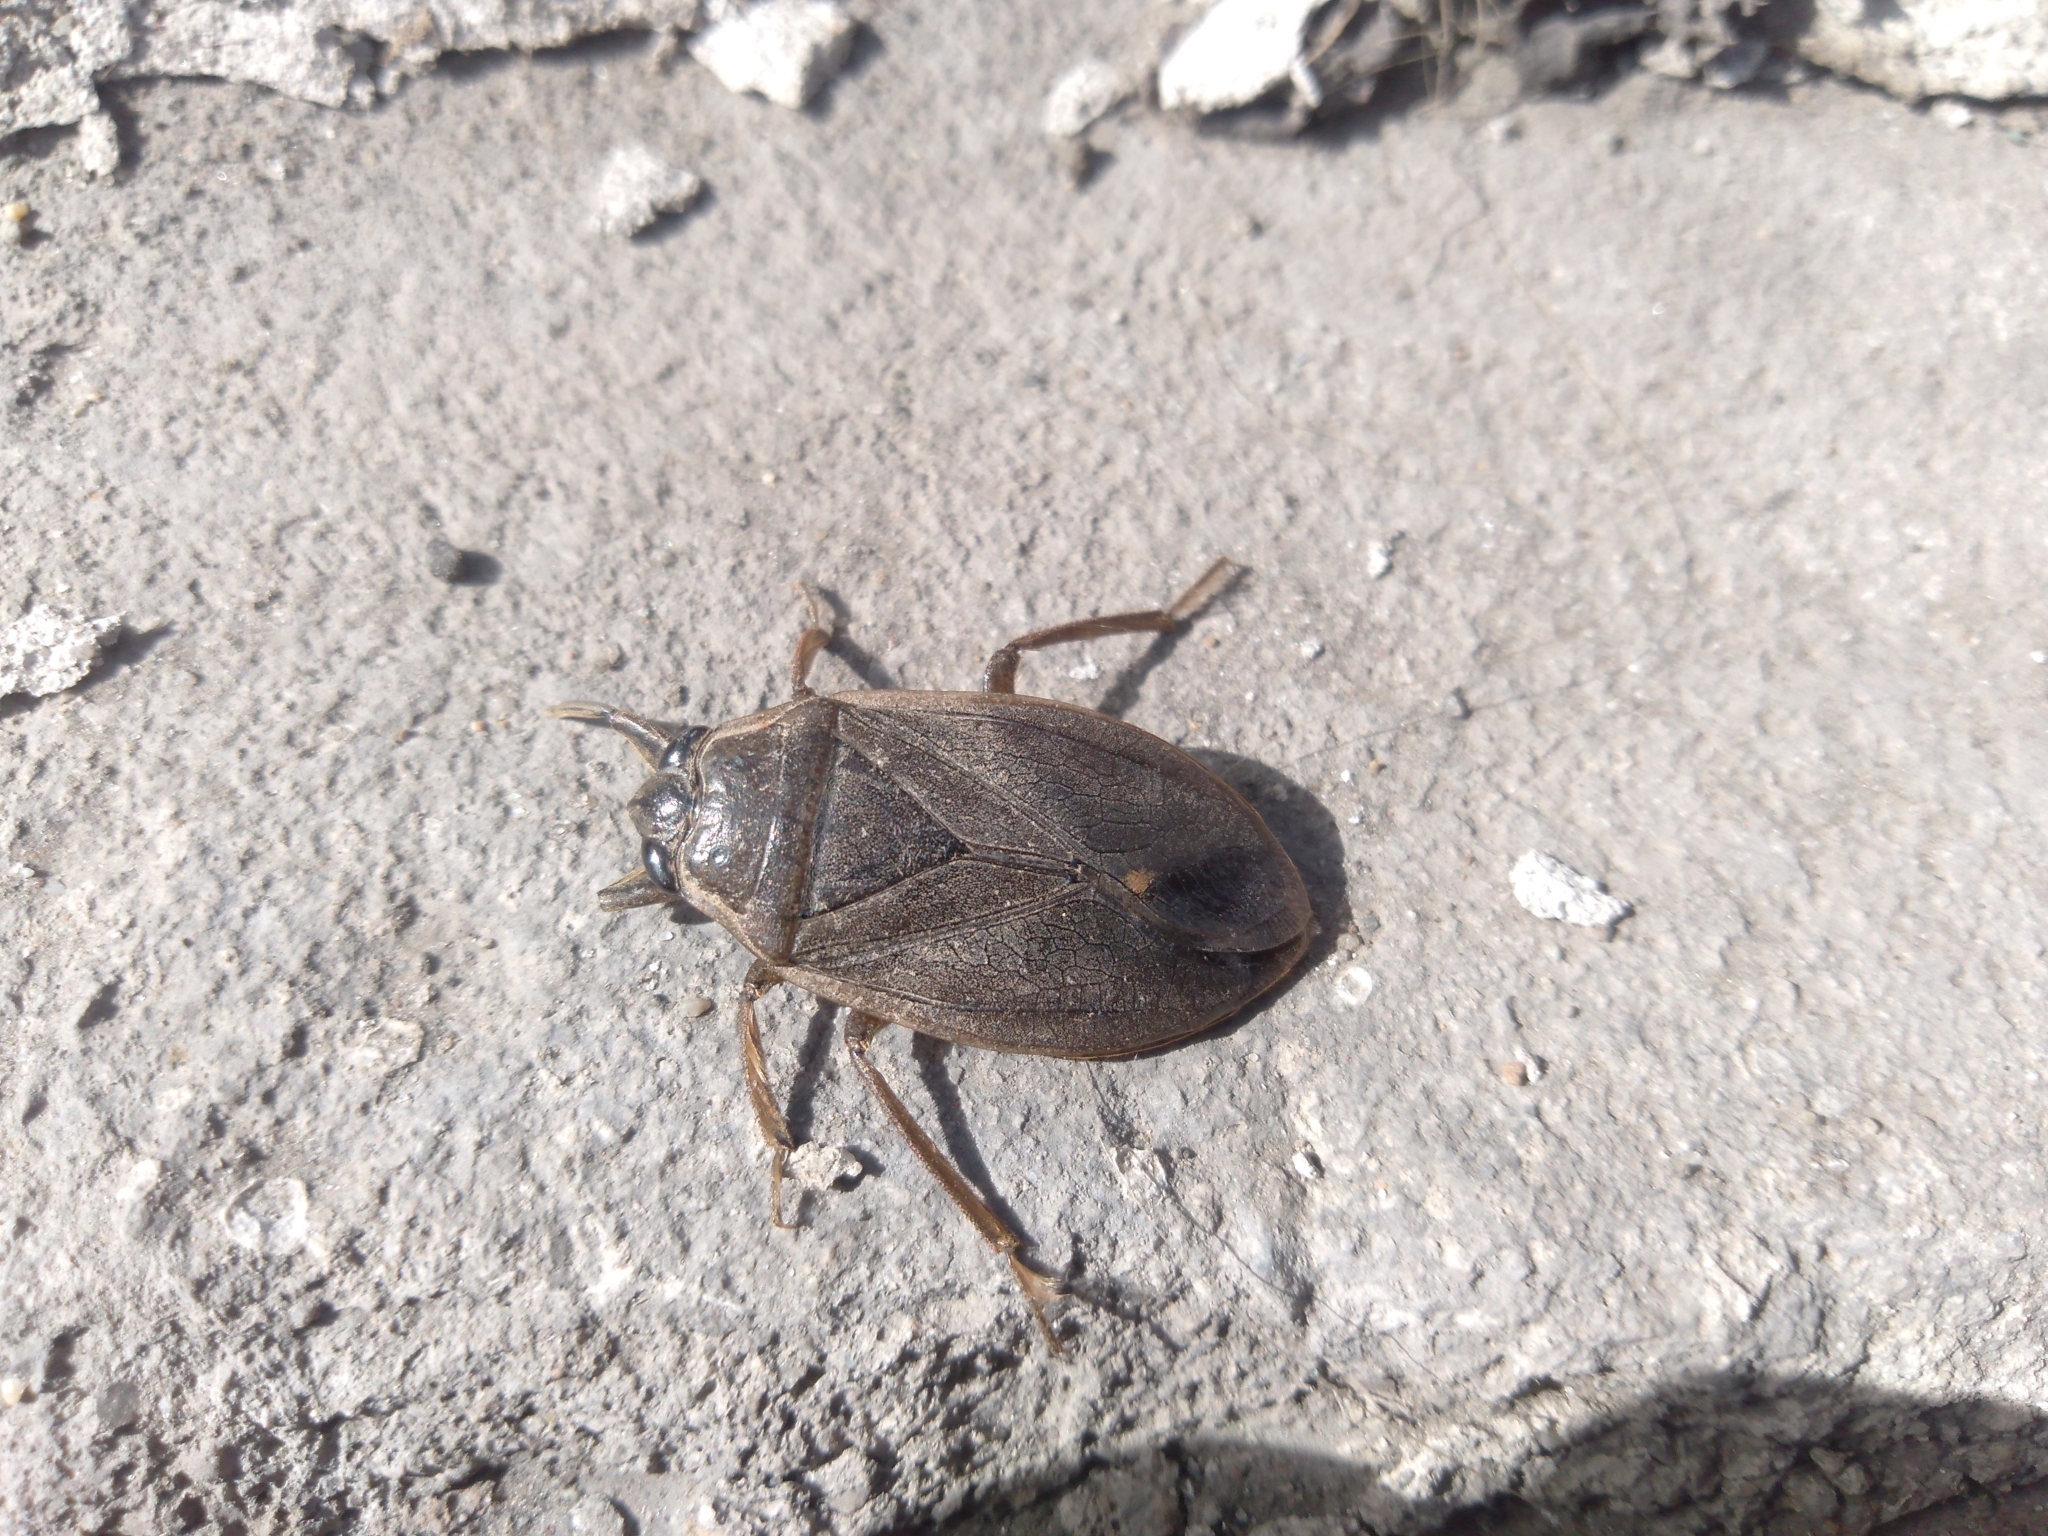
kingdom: Animalia
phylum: Arthropoda
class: Insecta
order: Hemiptera
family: Belostomatidae
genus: Appasus
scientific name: Appasus major
